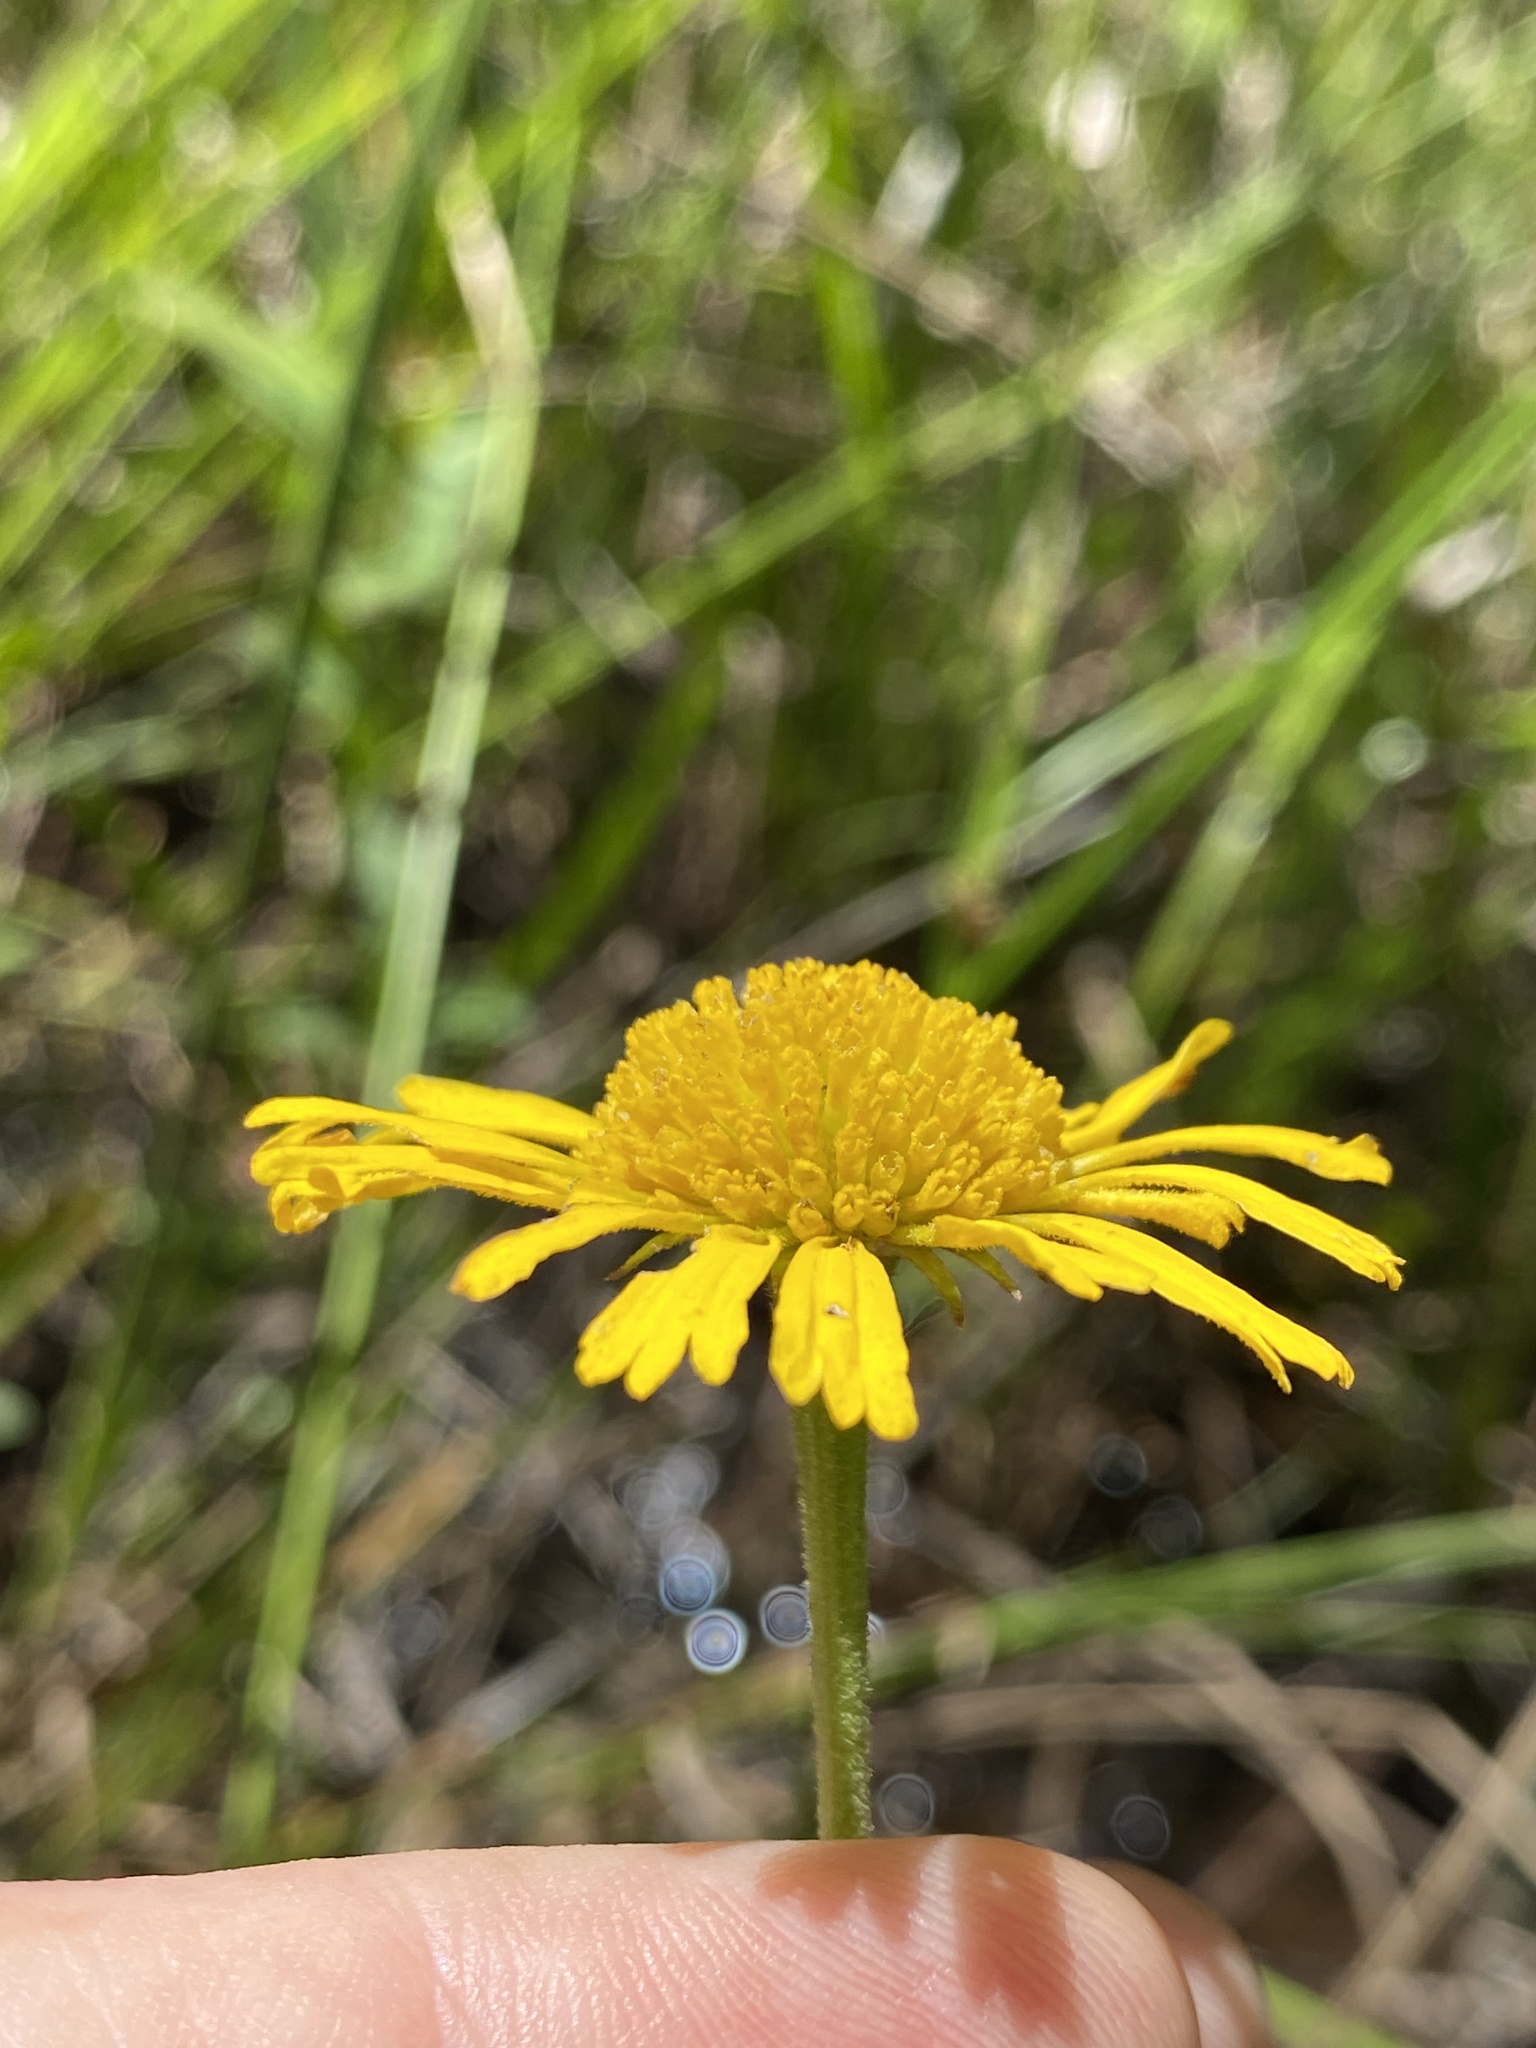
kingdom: Plantae
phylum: Tracheophyta
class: Magnoliopsida
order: Asterales
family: Asteraceae
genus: Helenium
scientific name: Helenium vernale
